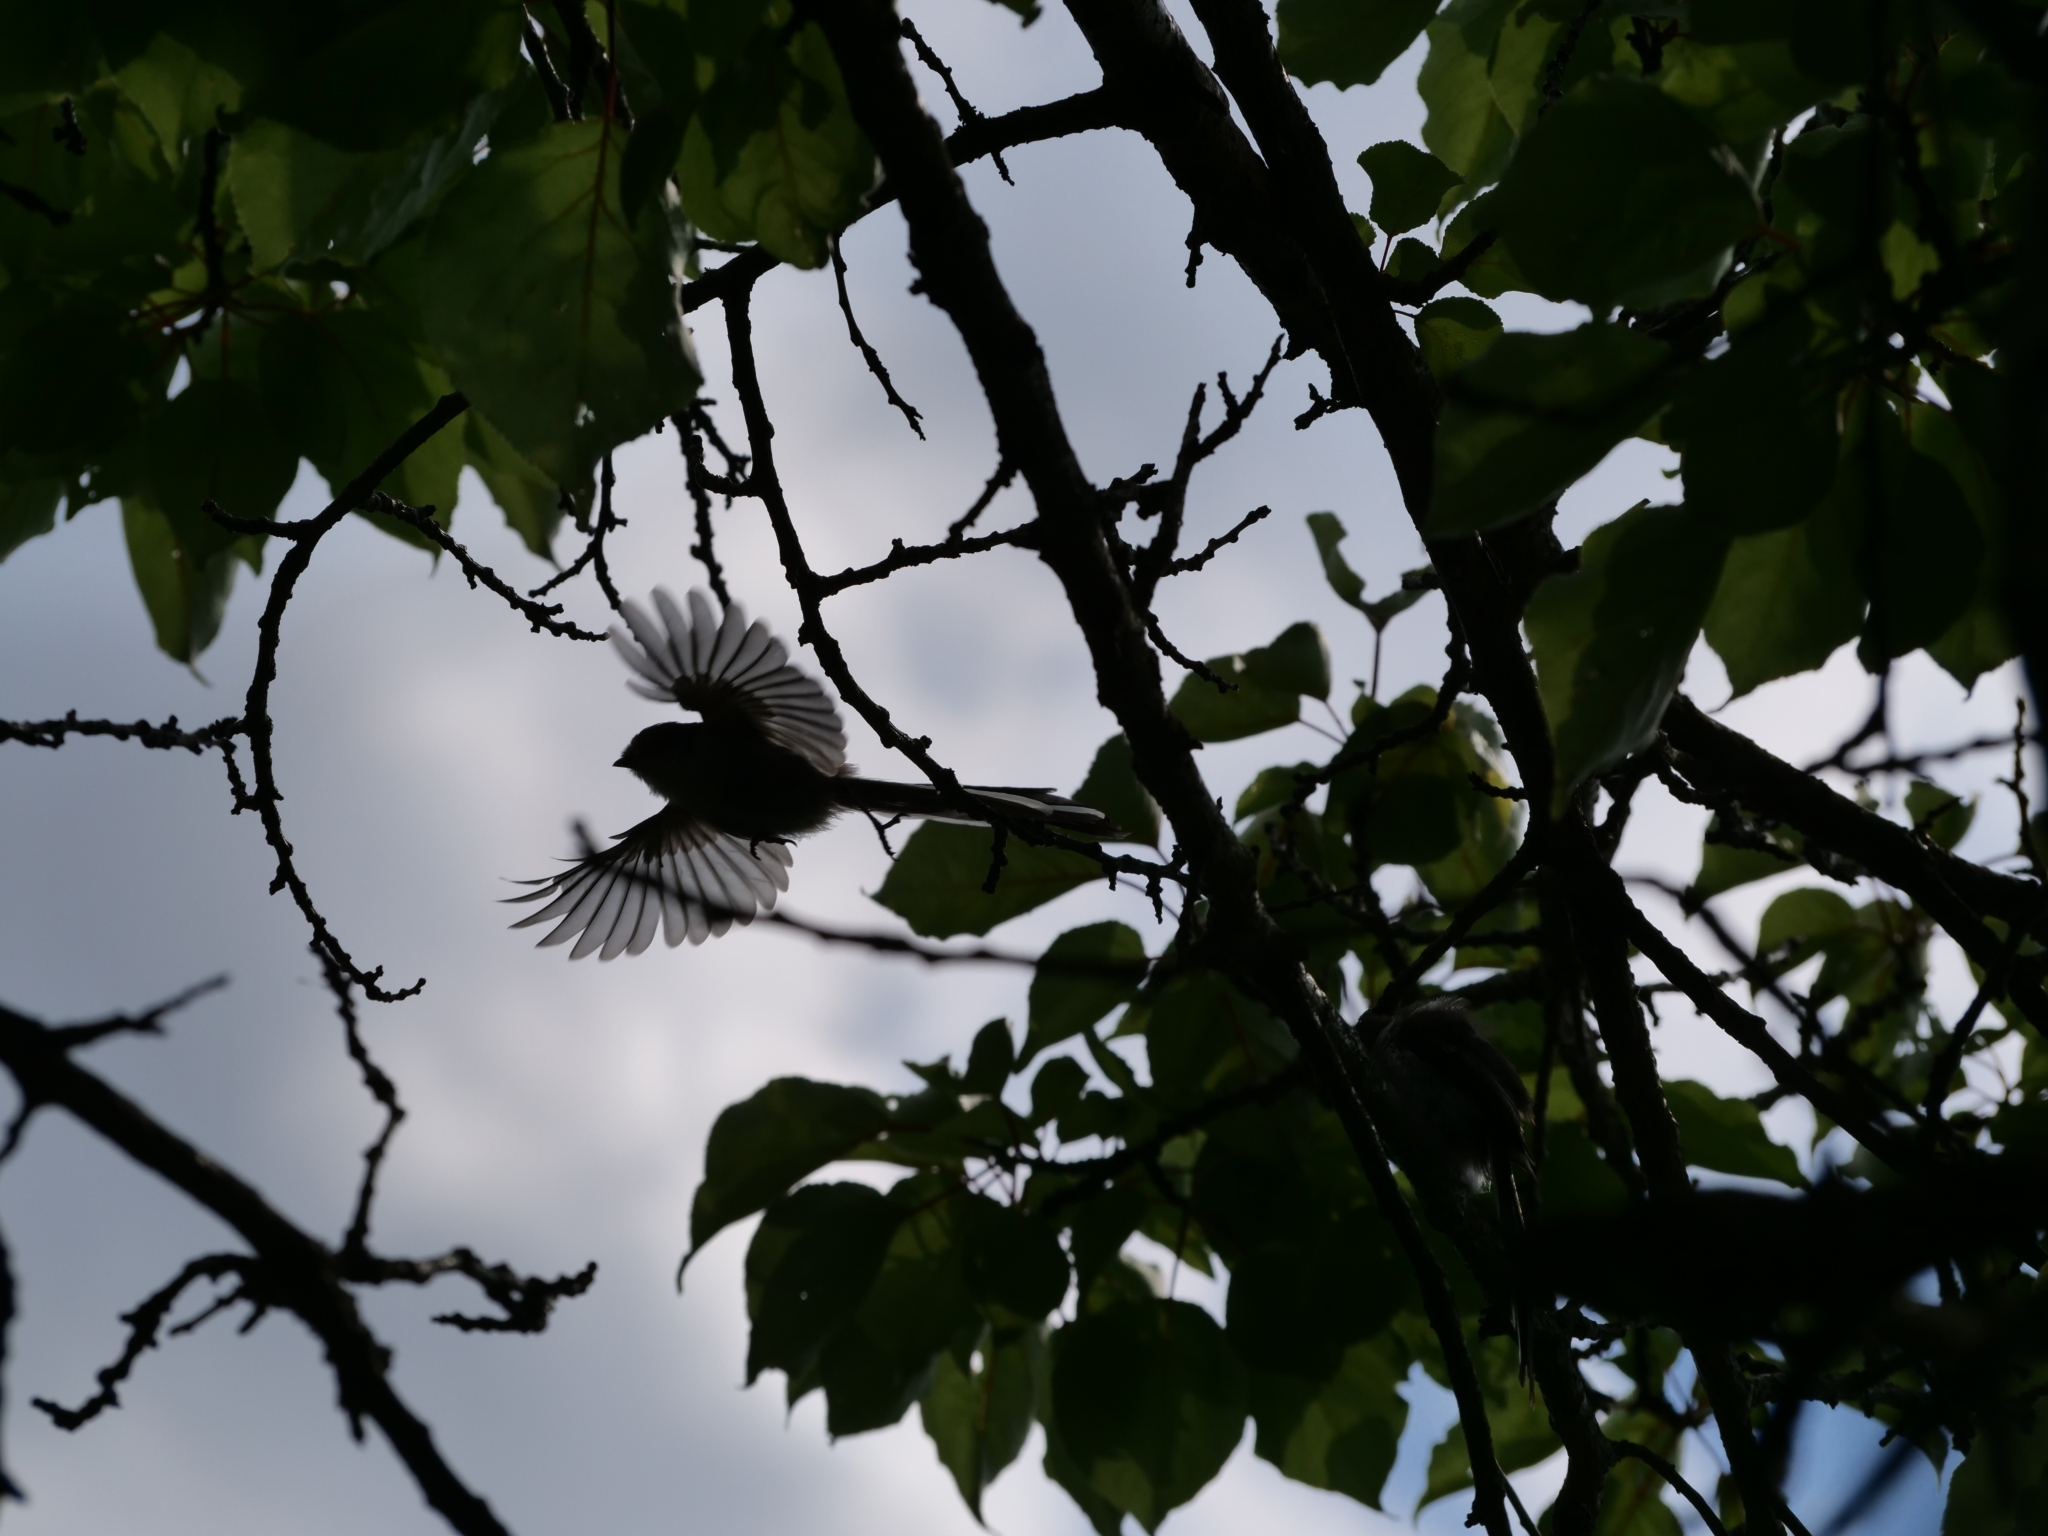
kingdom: Animalia
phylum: Chordata
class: Aves
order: Passeriformes
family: Aegithalidae
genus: Aegithalos
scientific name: Aegithalos caudatus
